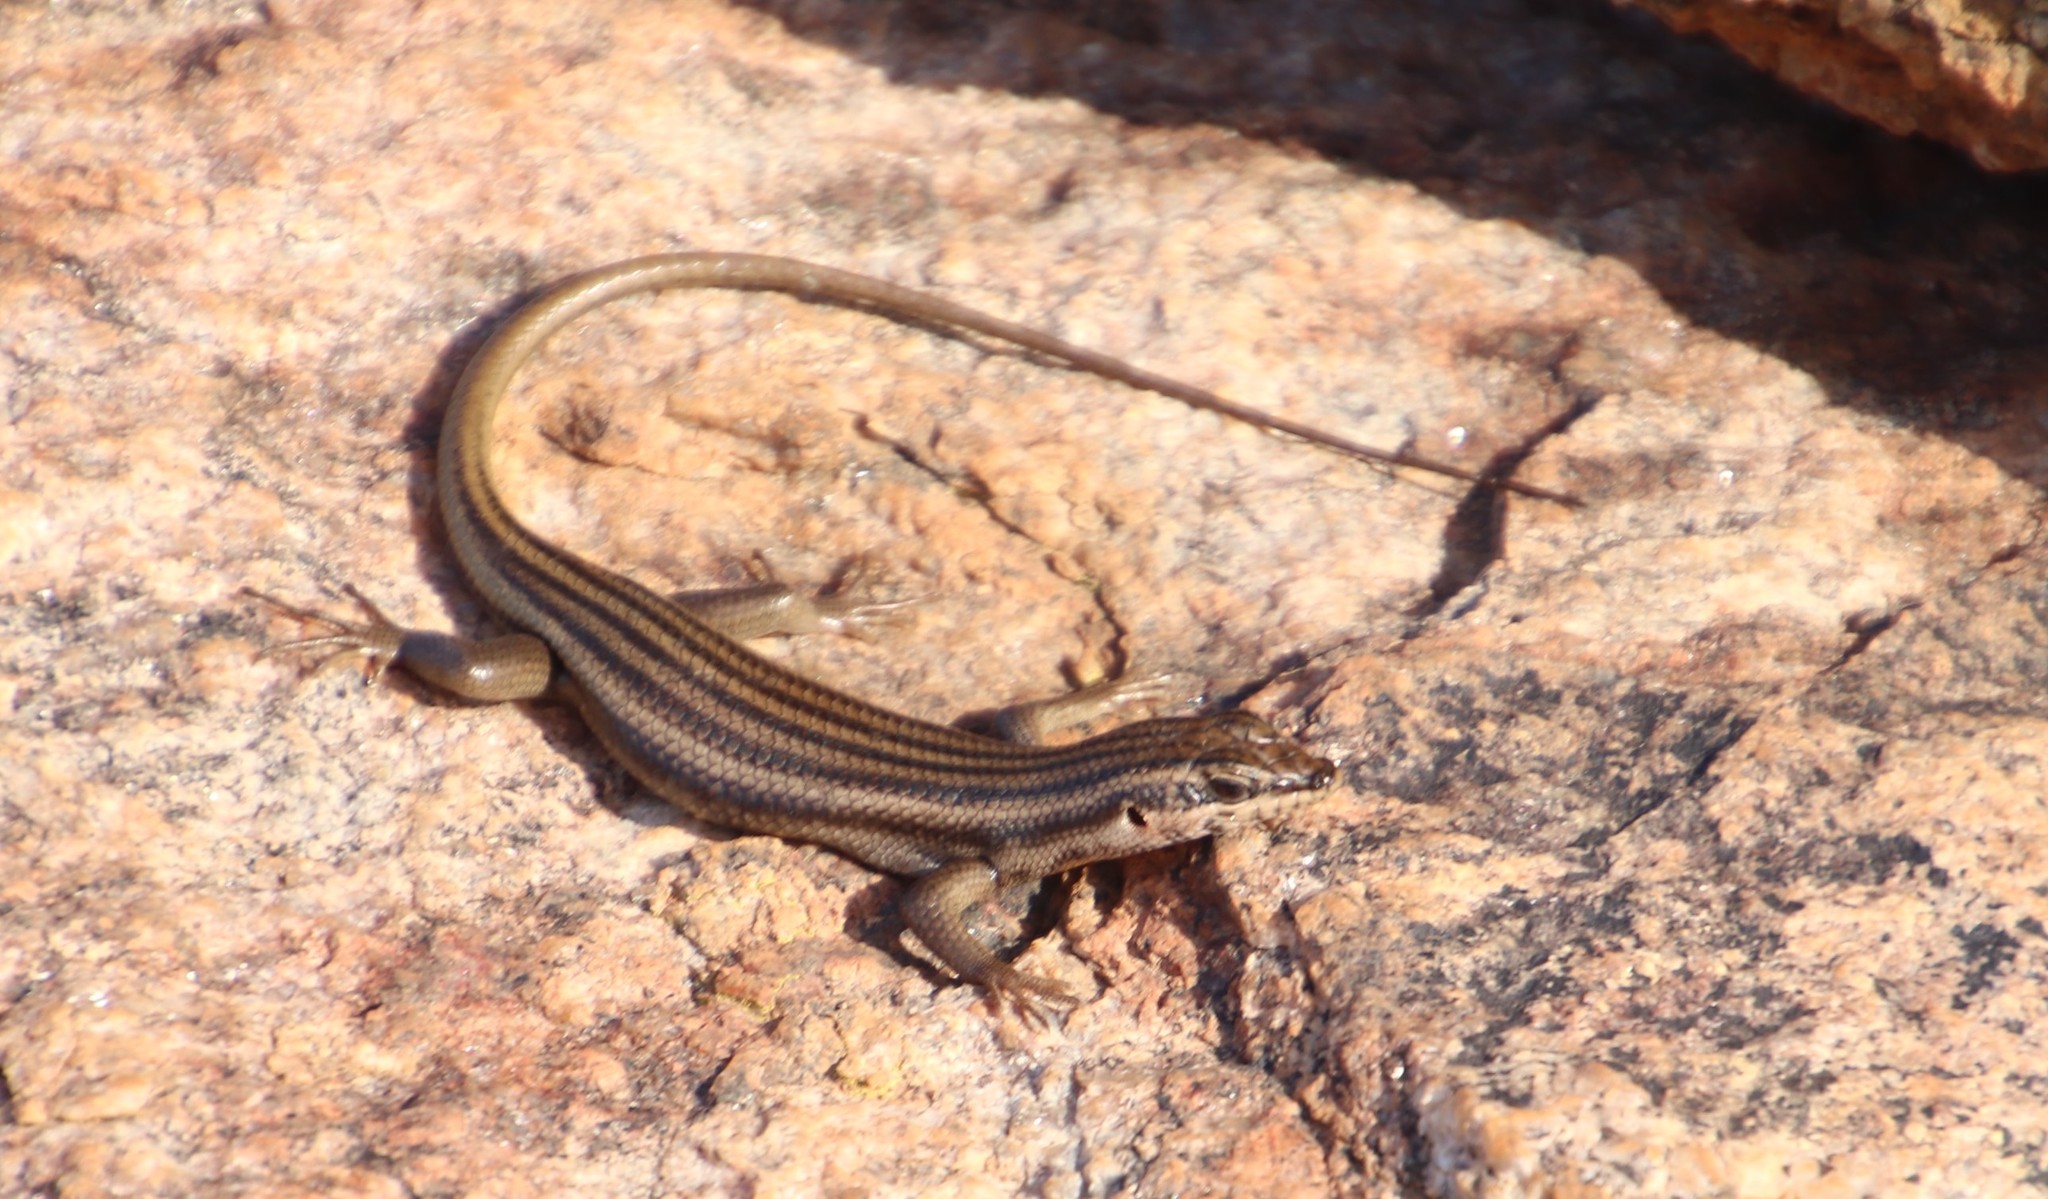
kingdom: Animalia
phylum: Chordata
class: Squamata
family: Scincidae
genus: Trachylepis
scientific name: Trachylepis sulcata
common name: Western rock skink
